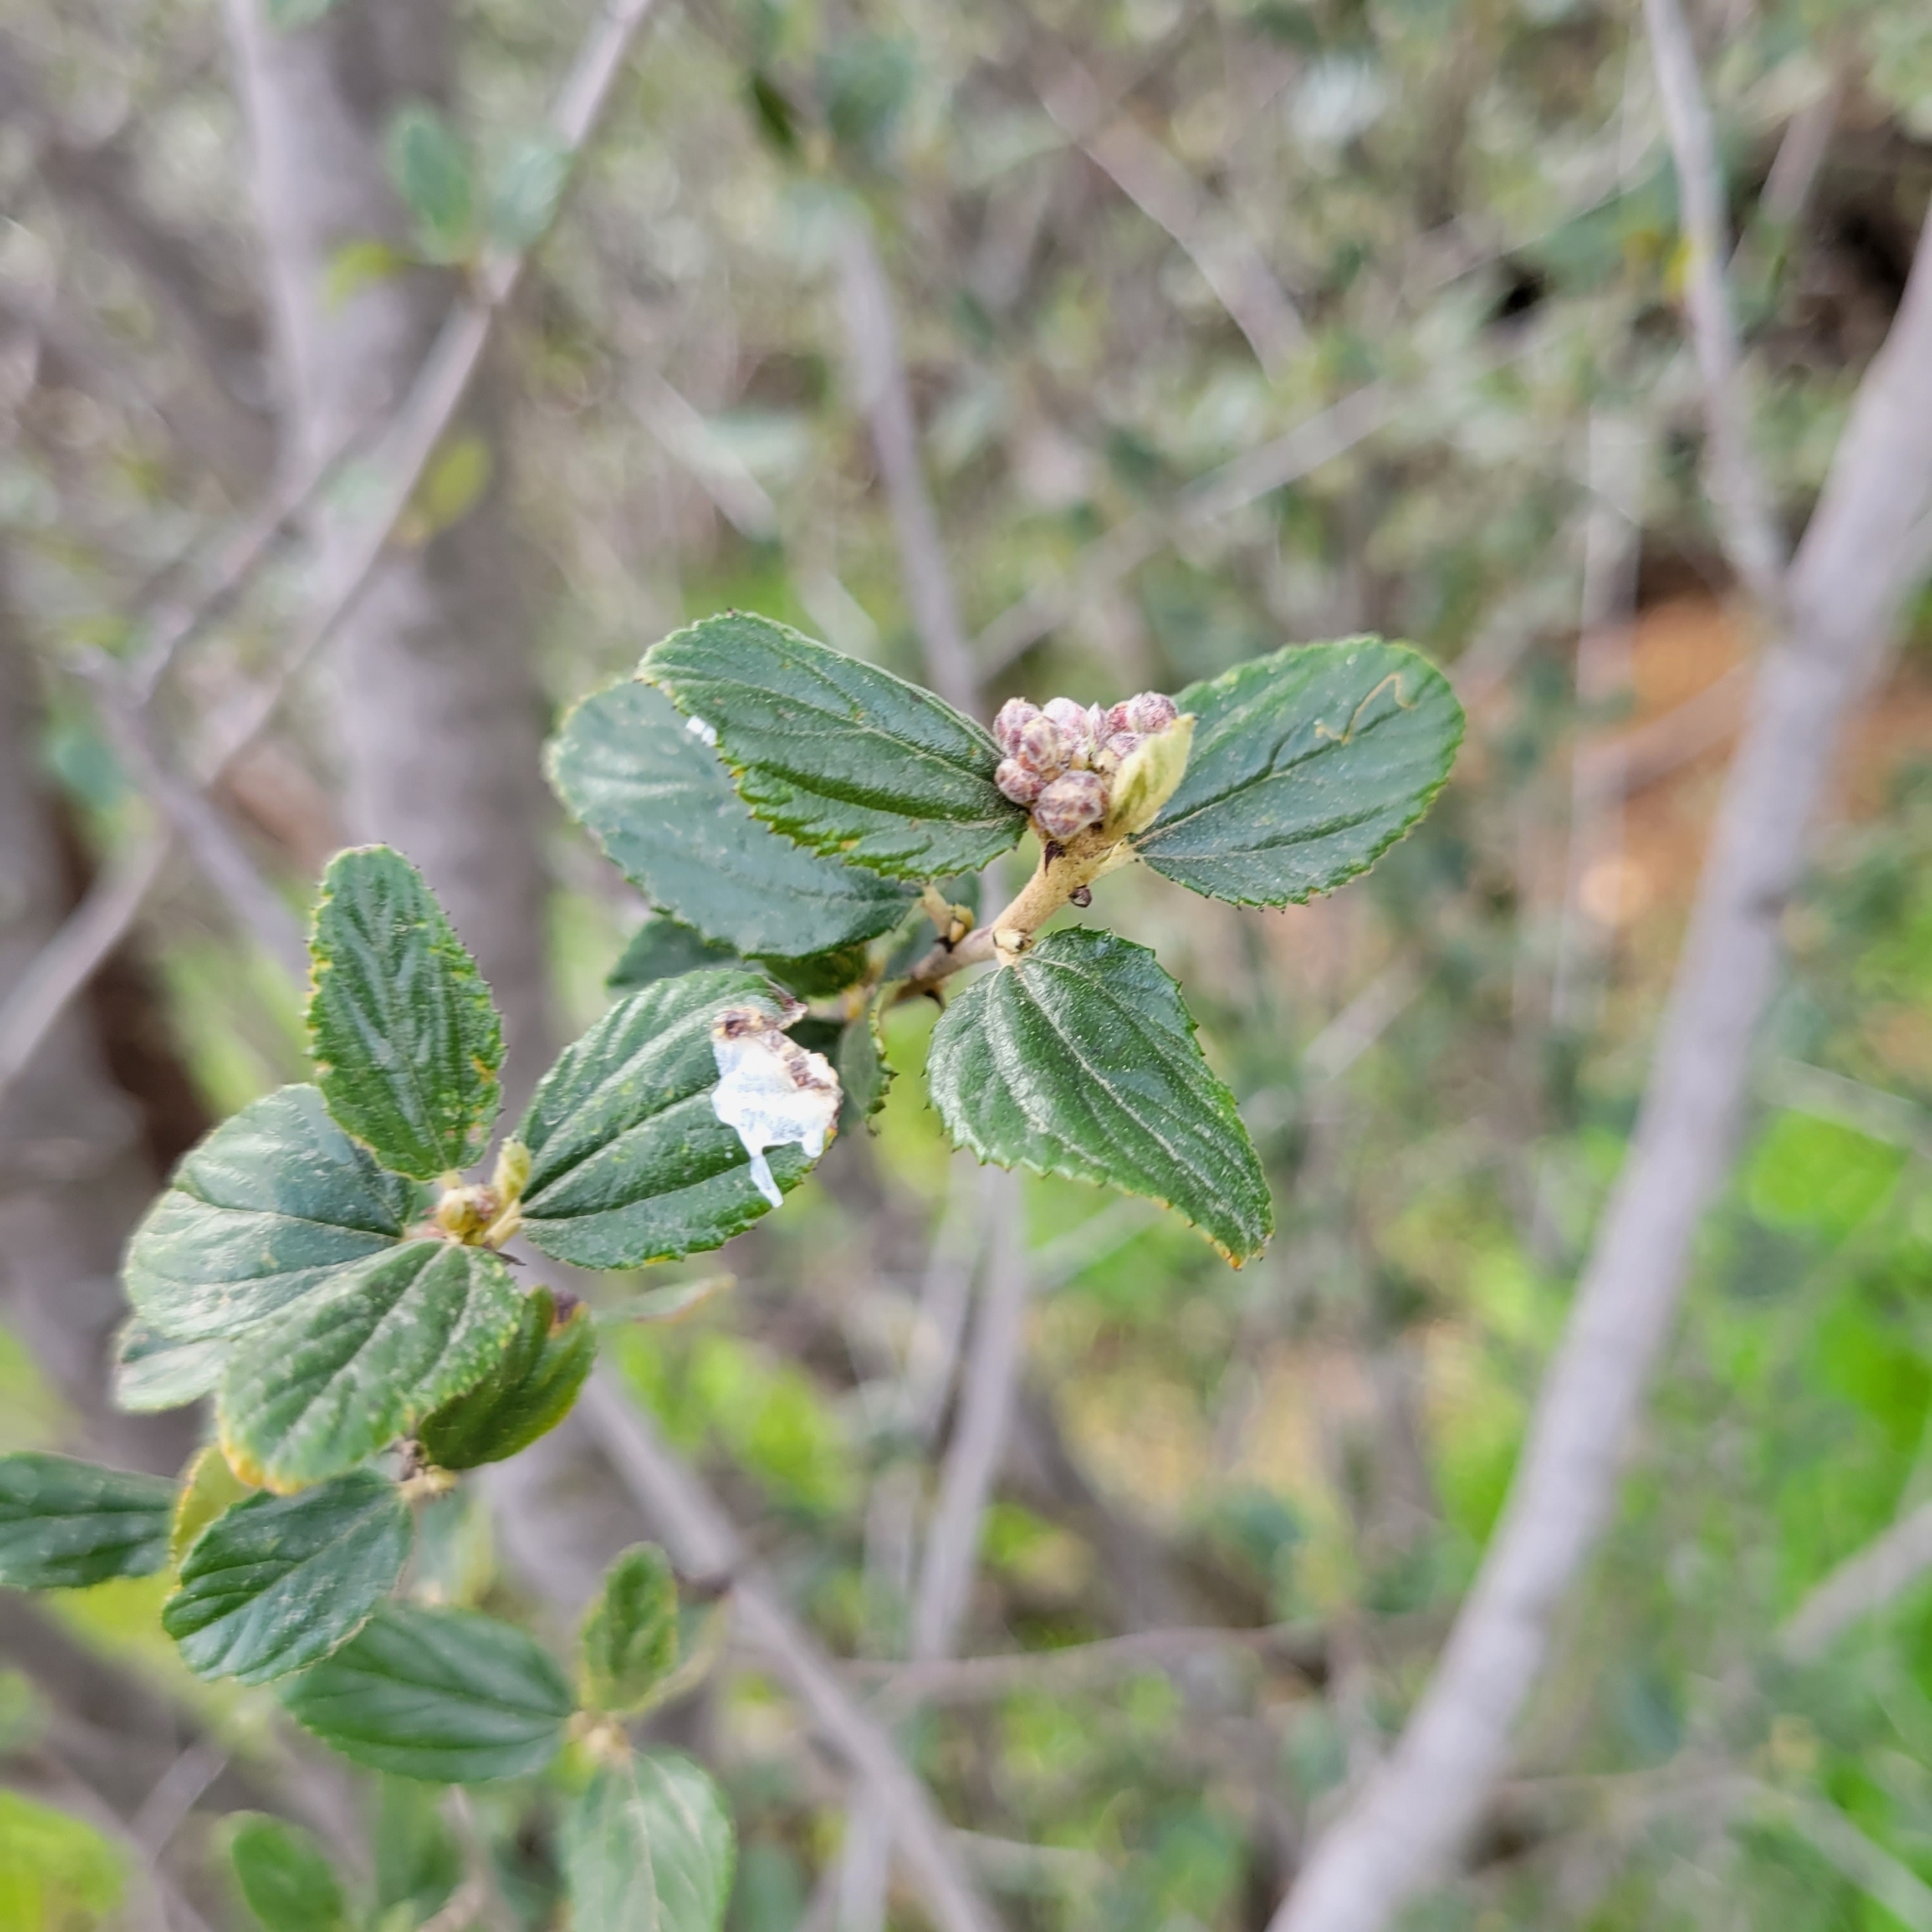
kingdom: Plantae
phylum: Tracheophyta
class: Magnoliopsida
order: Rosales
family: Rhamnaceae
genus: Ceanothus
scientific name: Ceanothus tomentosus
